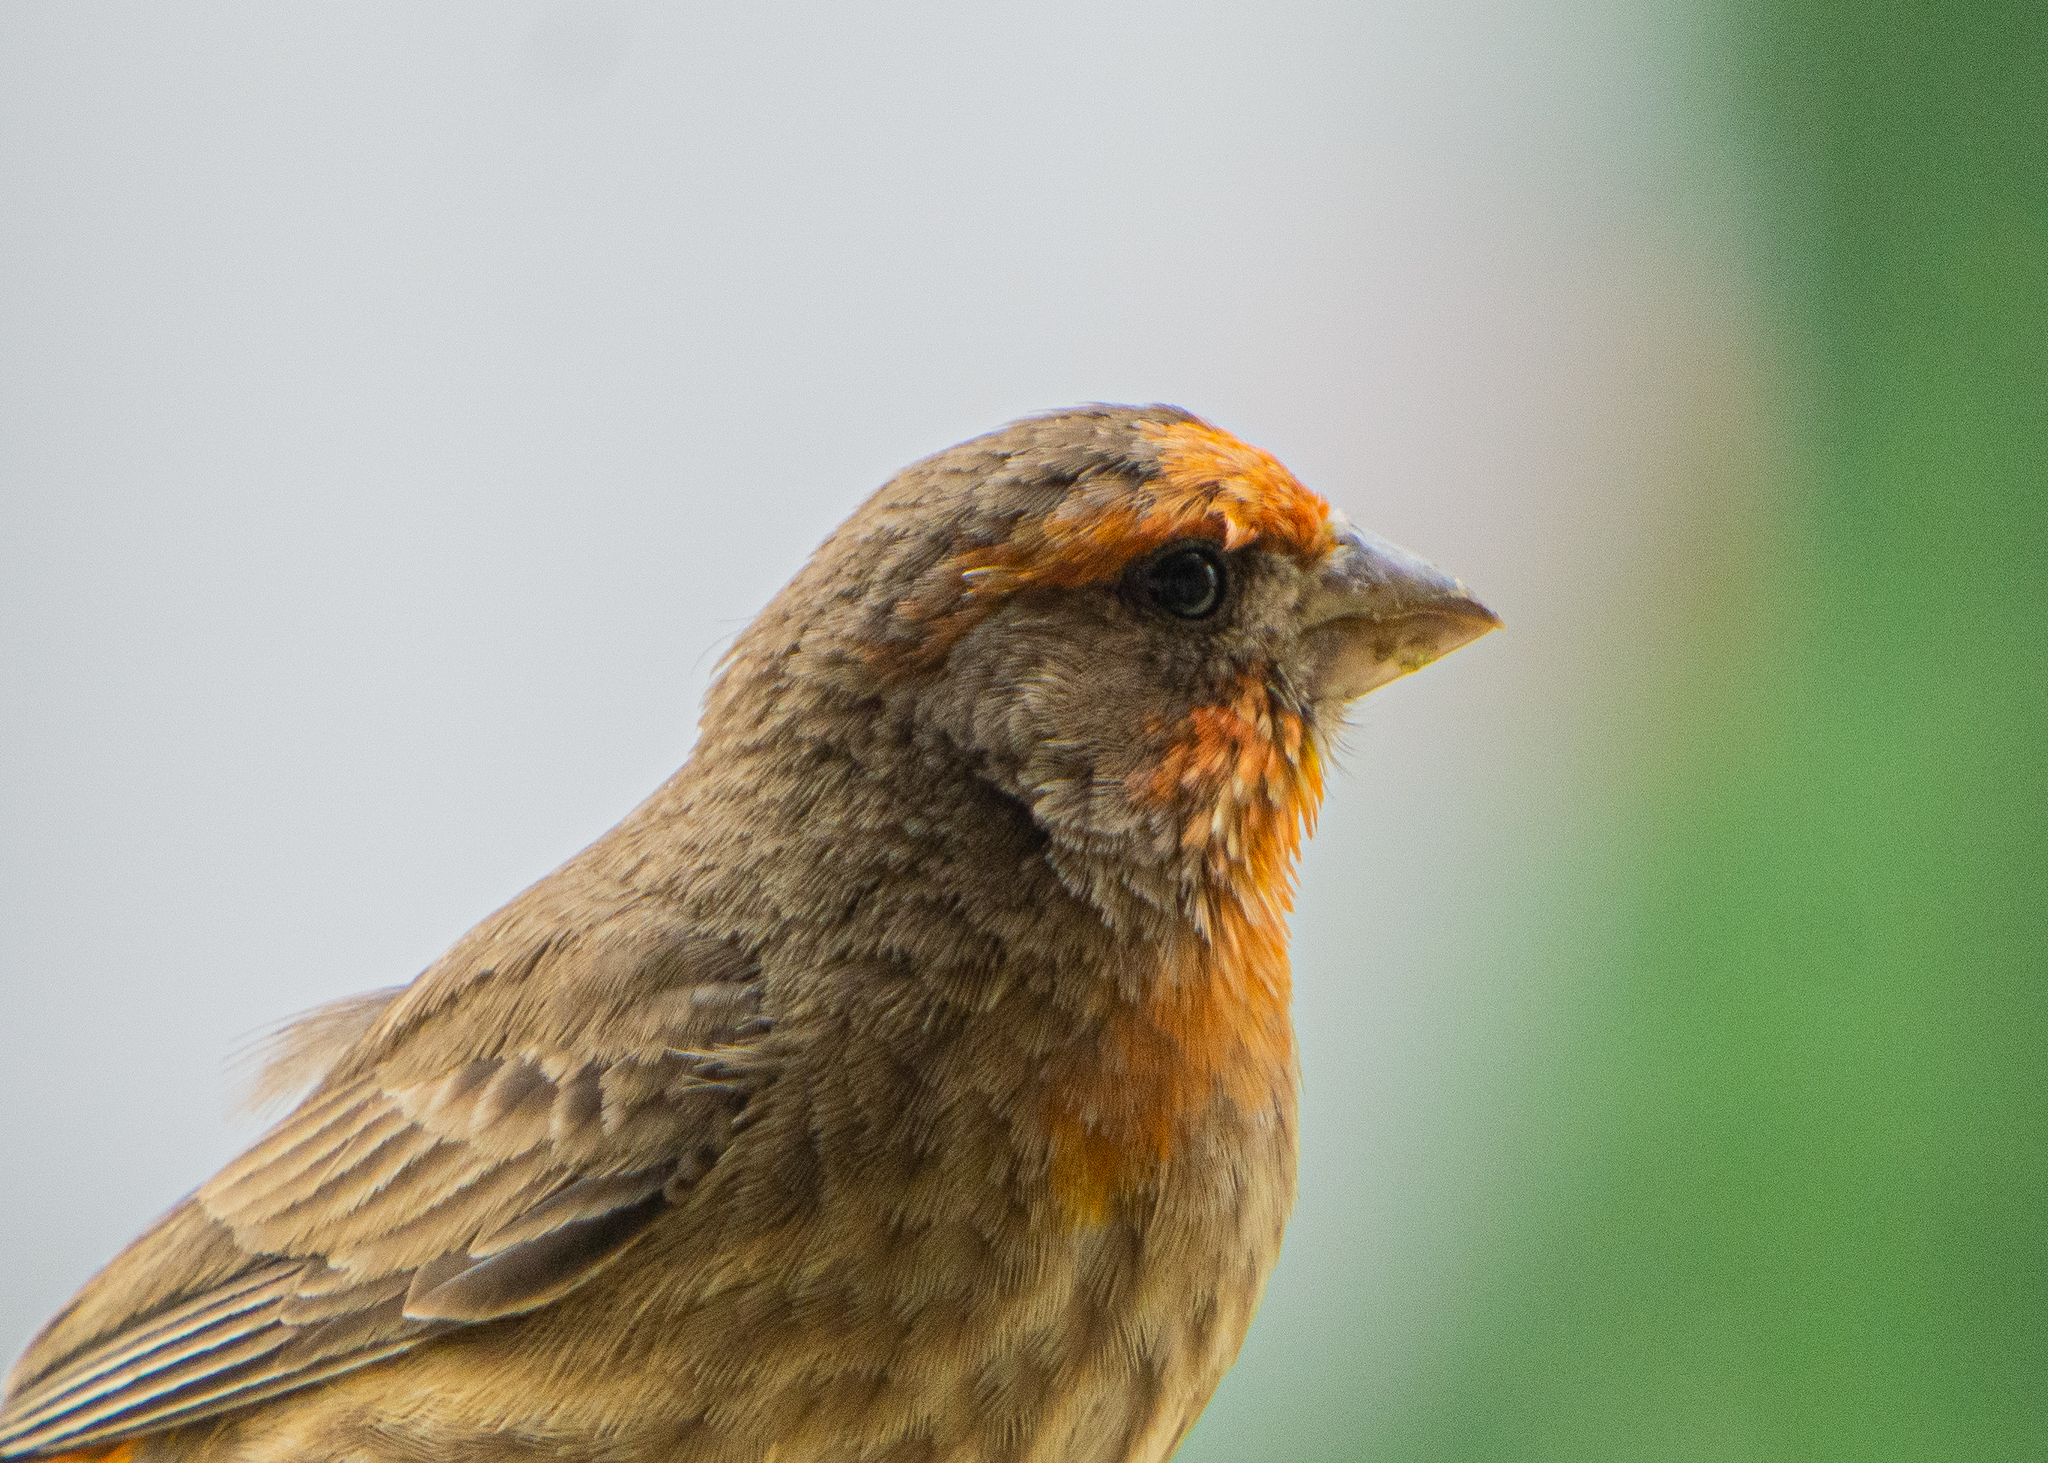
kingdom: Animalia
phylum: Chordata
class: Aves
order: Passeriformes
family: Fringillidae
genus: Haemorhous
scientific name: Haemorhous mexicanus
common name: House finch
